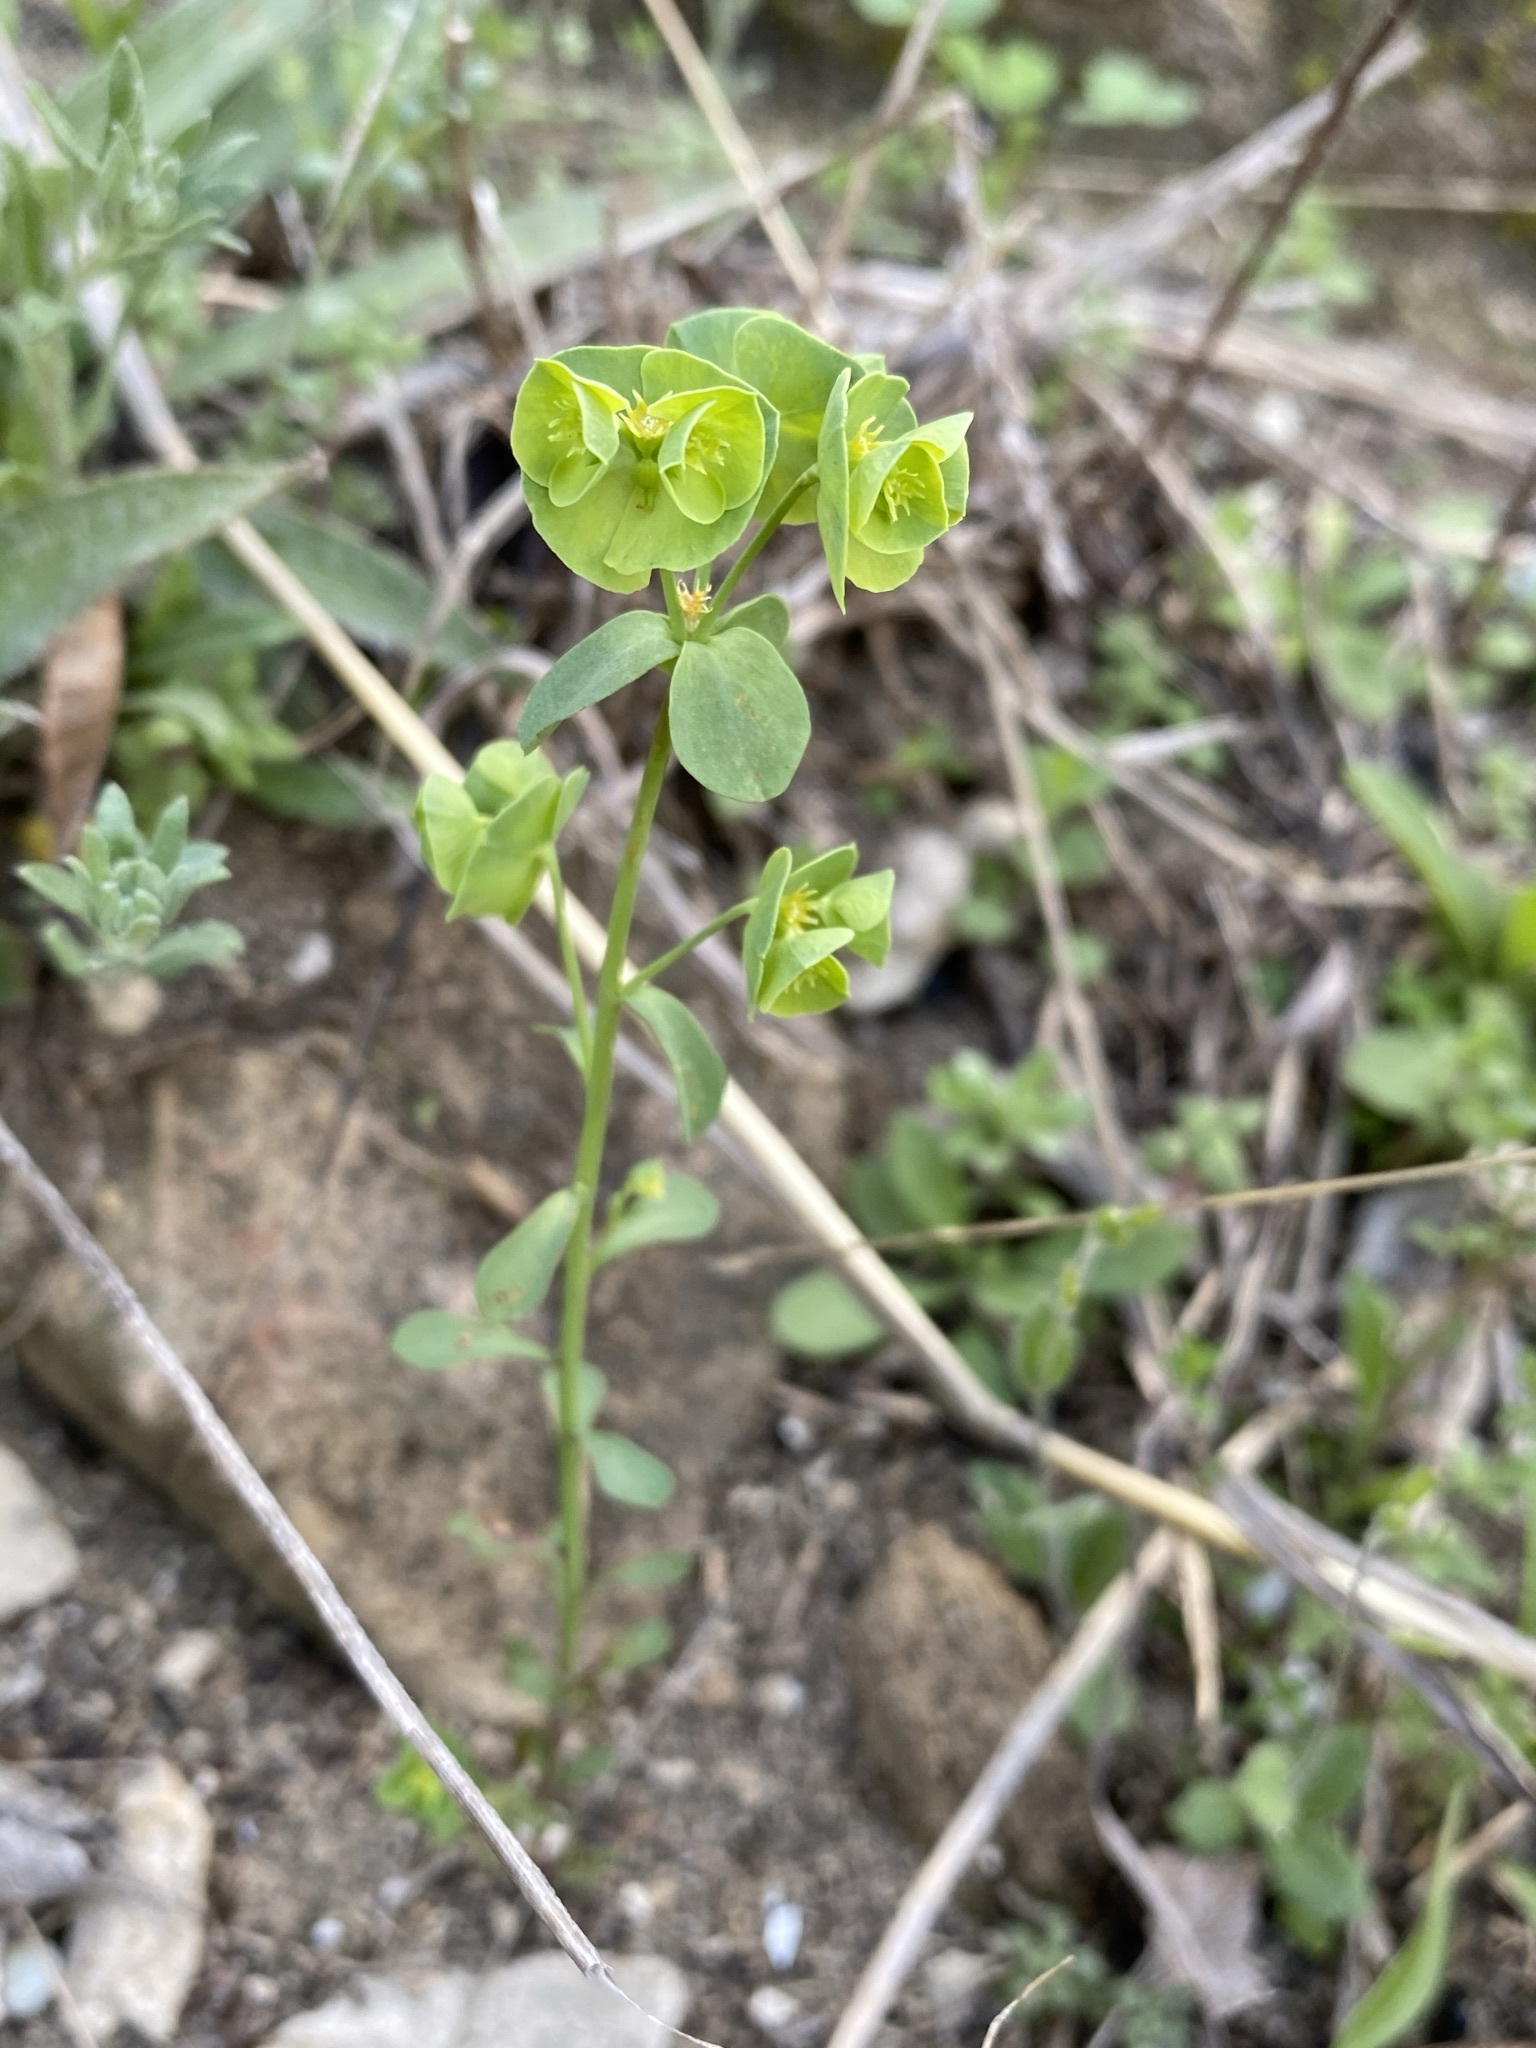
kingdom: Plantae
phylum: Tracheophyta
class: Magnoliopsida
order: Malpighiales
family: Euphorbiaceae
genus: Euphorbia
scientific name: Euphorbia longicruris
